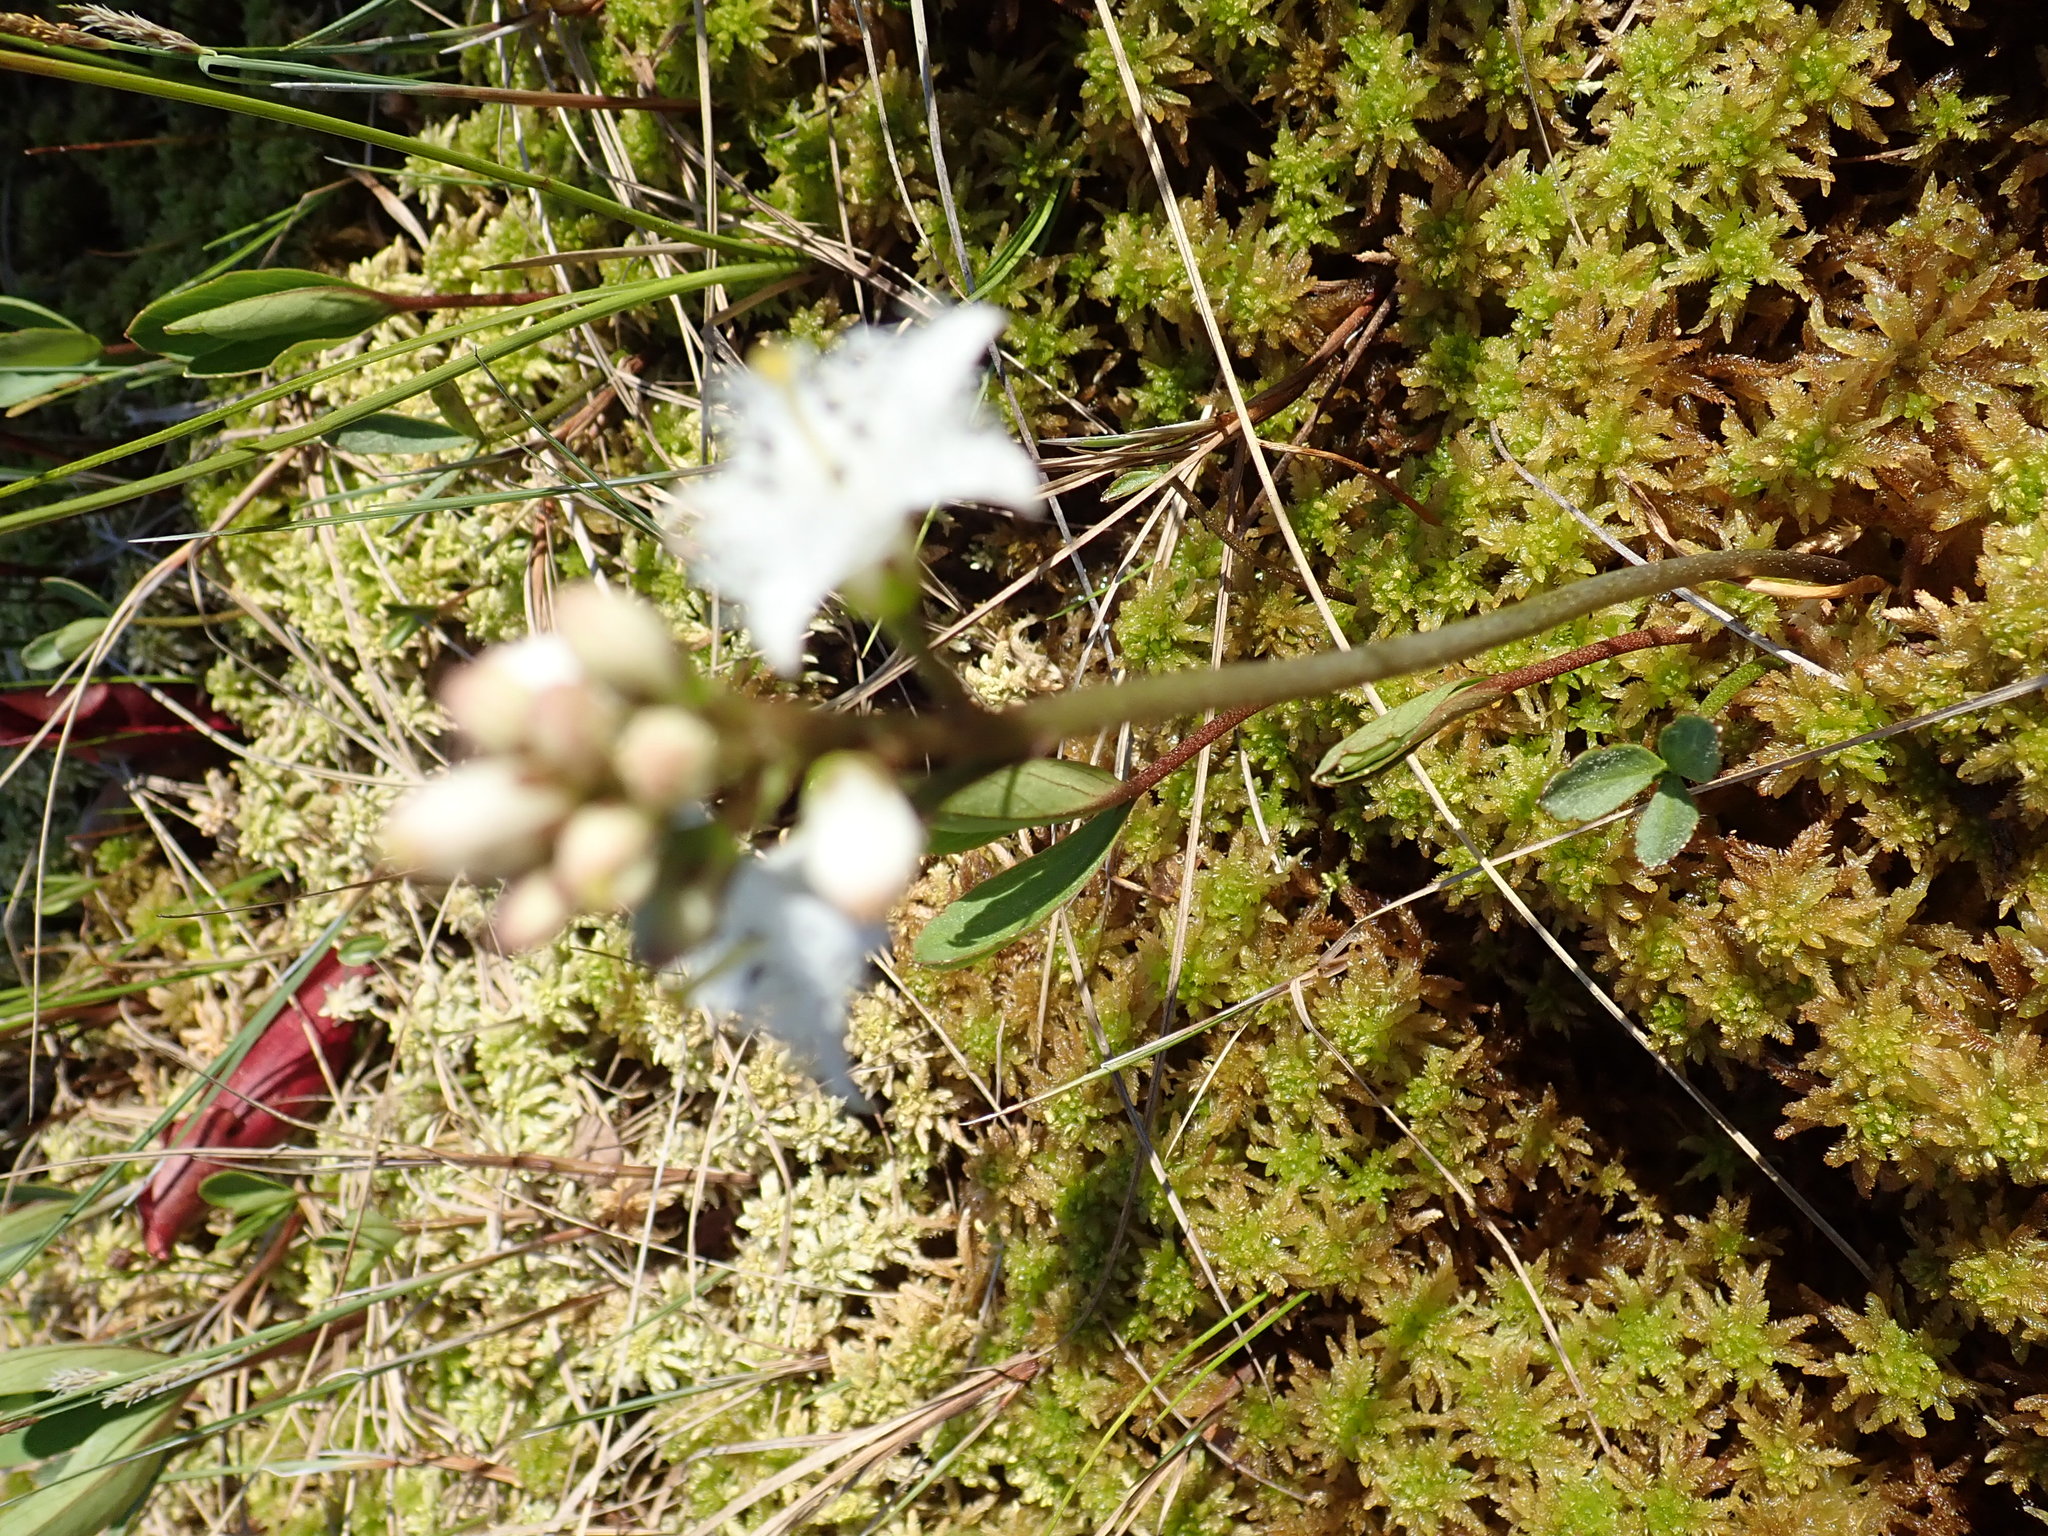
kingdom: Plantae
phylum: Tracheophyta
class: Magnoliopsida
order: Asterales
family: Menyanthaceae
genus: Menyanthes
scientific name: Menyanthes trifoliata
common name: Bogbean
